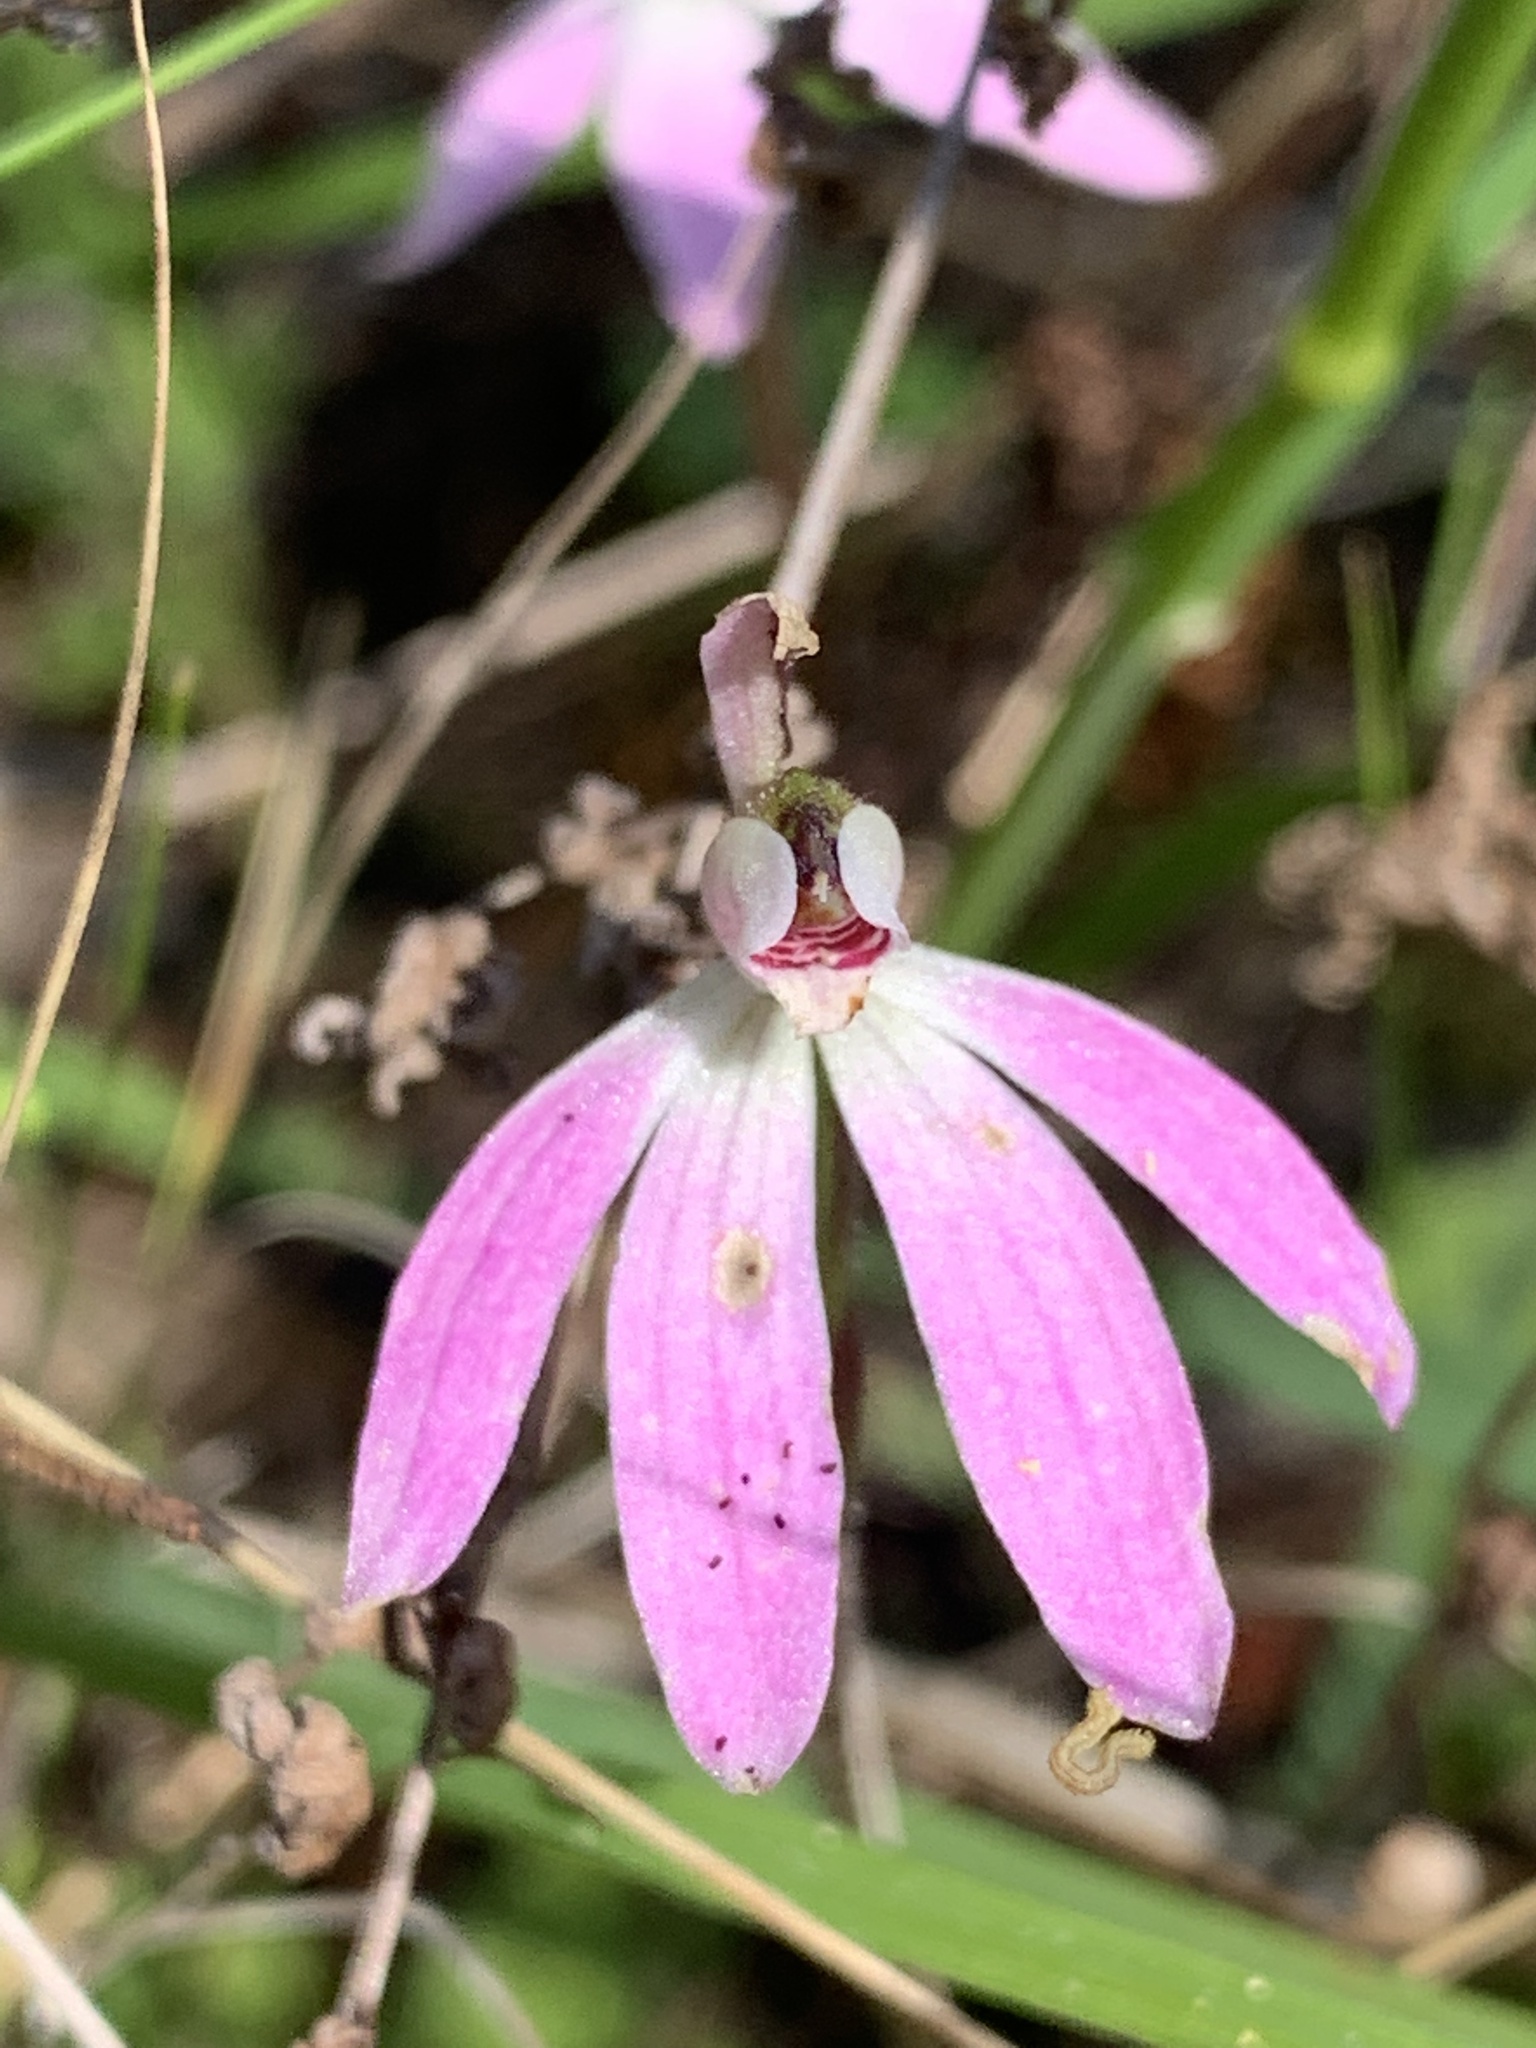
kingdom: Plantae
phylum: Tracheophyta
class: Liliopsida
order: Asparagales
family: Orchidaceae
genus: Caladenia
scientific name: Caladenia fuscata
